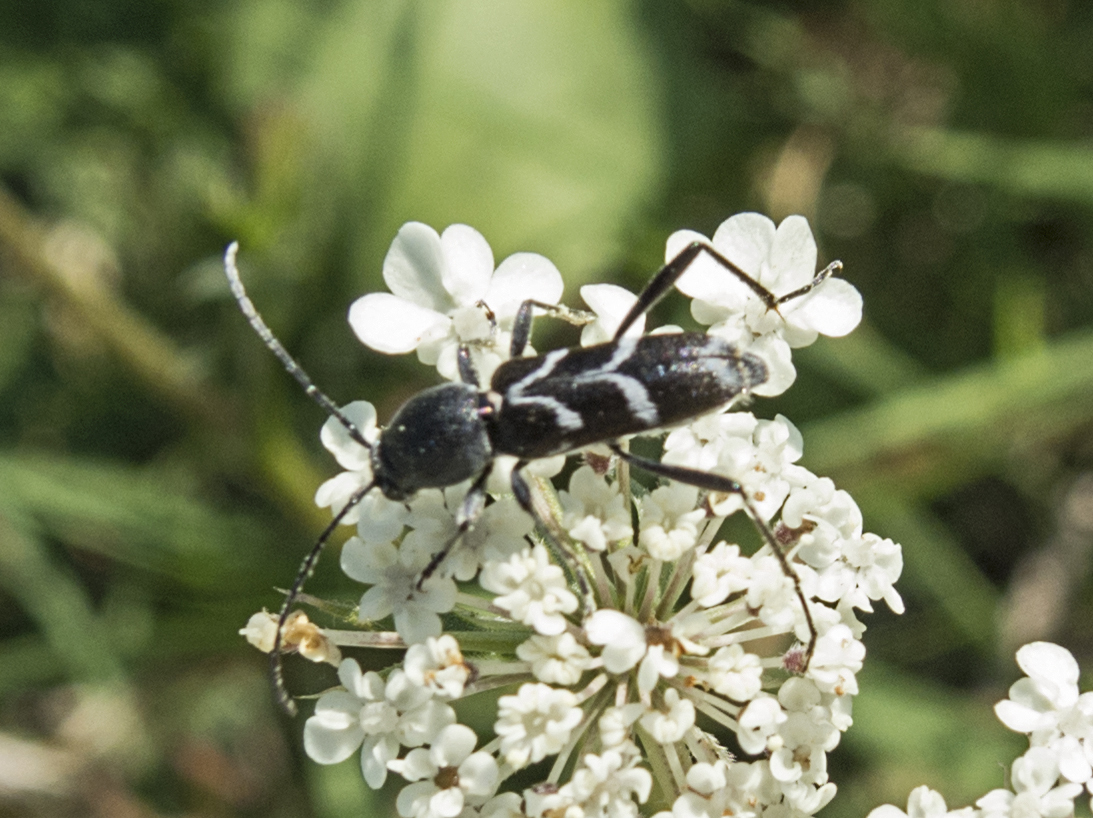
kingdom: Animalia
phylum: Arthropoda
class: Insecta
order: Coleoptera
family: Cerambycidae
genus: Chlorophorus
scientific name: Chlorophorus sartor
